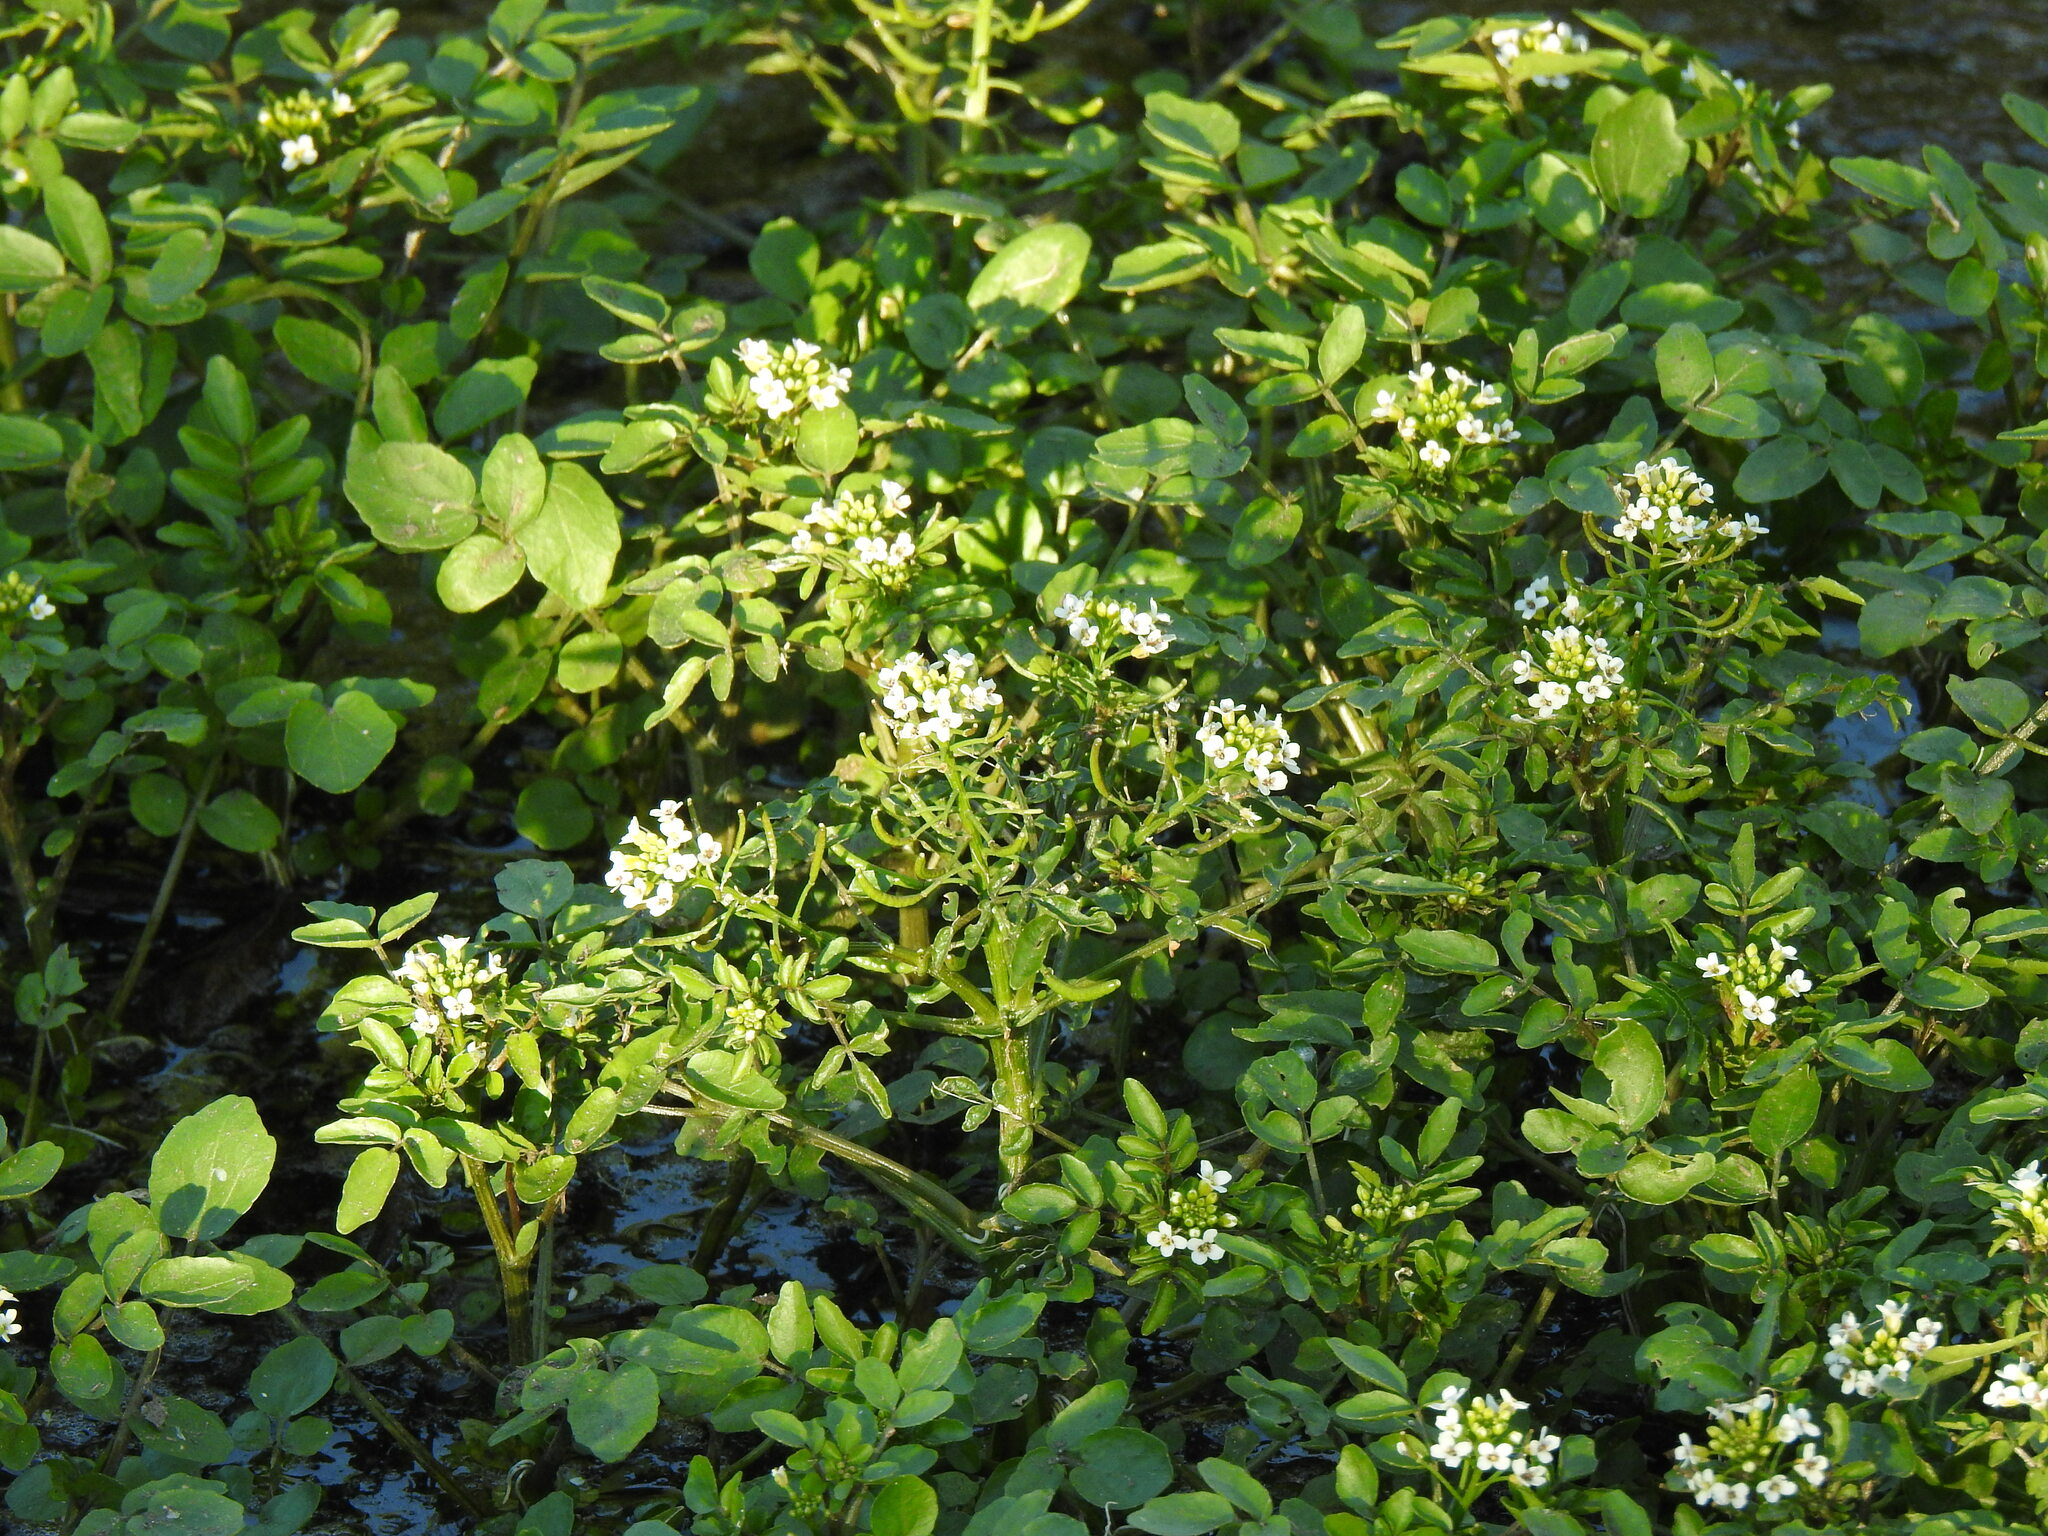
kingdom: Plantae
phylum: Tracheophyta
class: Magnoliopsida
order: Brassicales
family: Brassicaceae
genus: Nasturtium
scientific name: Nasturtium officinale
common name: Watercress
